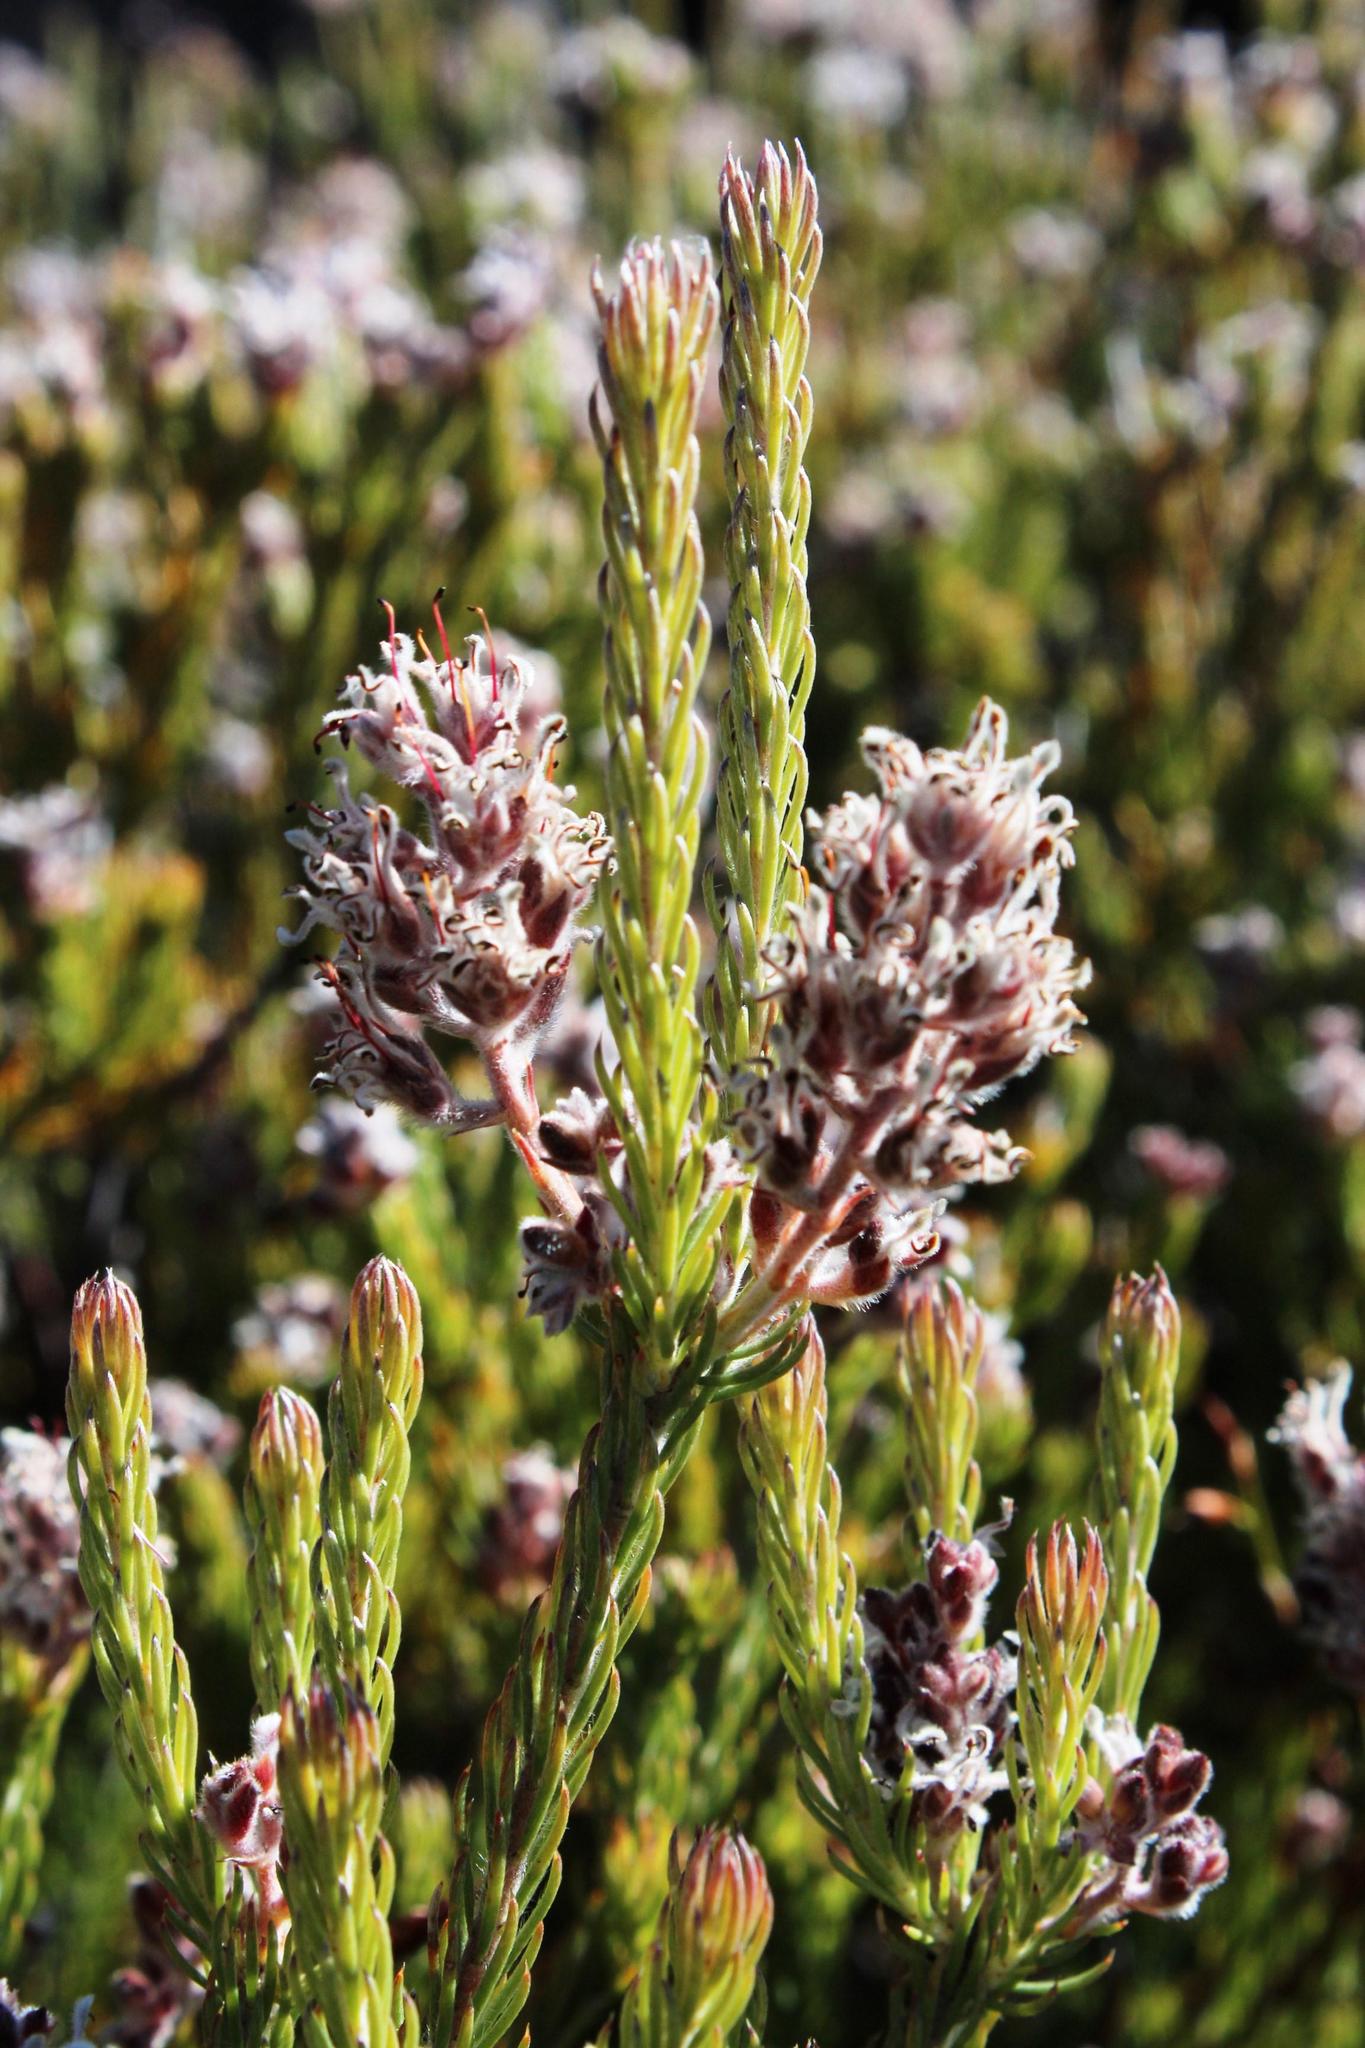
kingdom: Plantae
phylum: Tracheophyta
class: Magnoliopsida
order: Proteales
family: Proteaceae
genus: Spatalla
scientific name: Spatalla incurva
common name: Swan-head spoon
